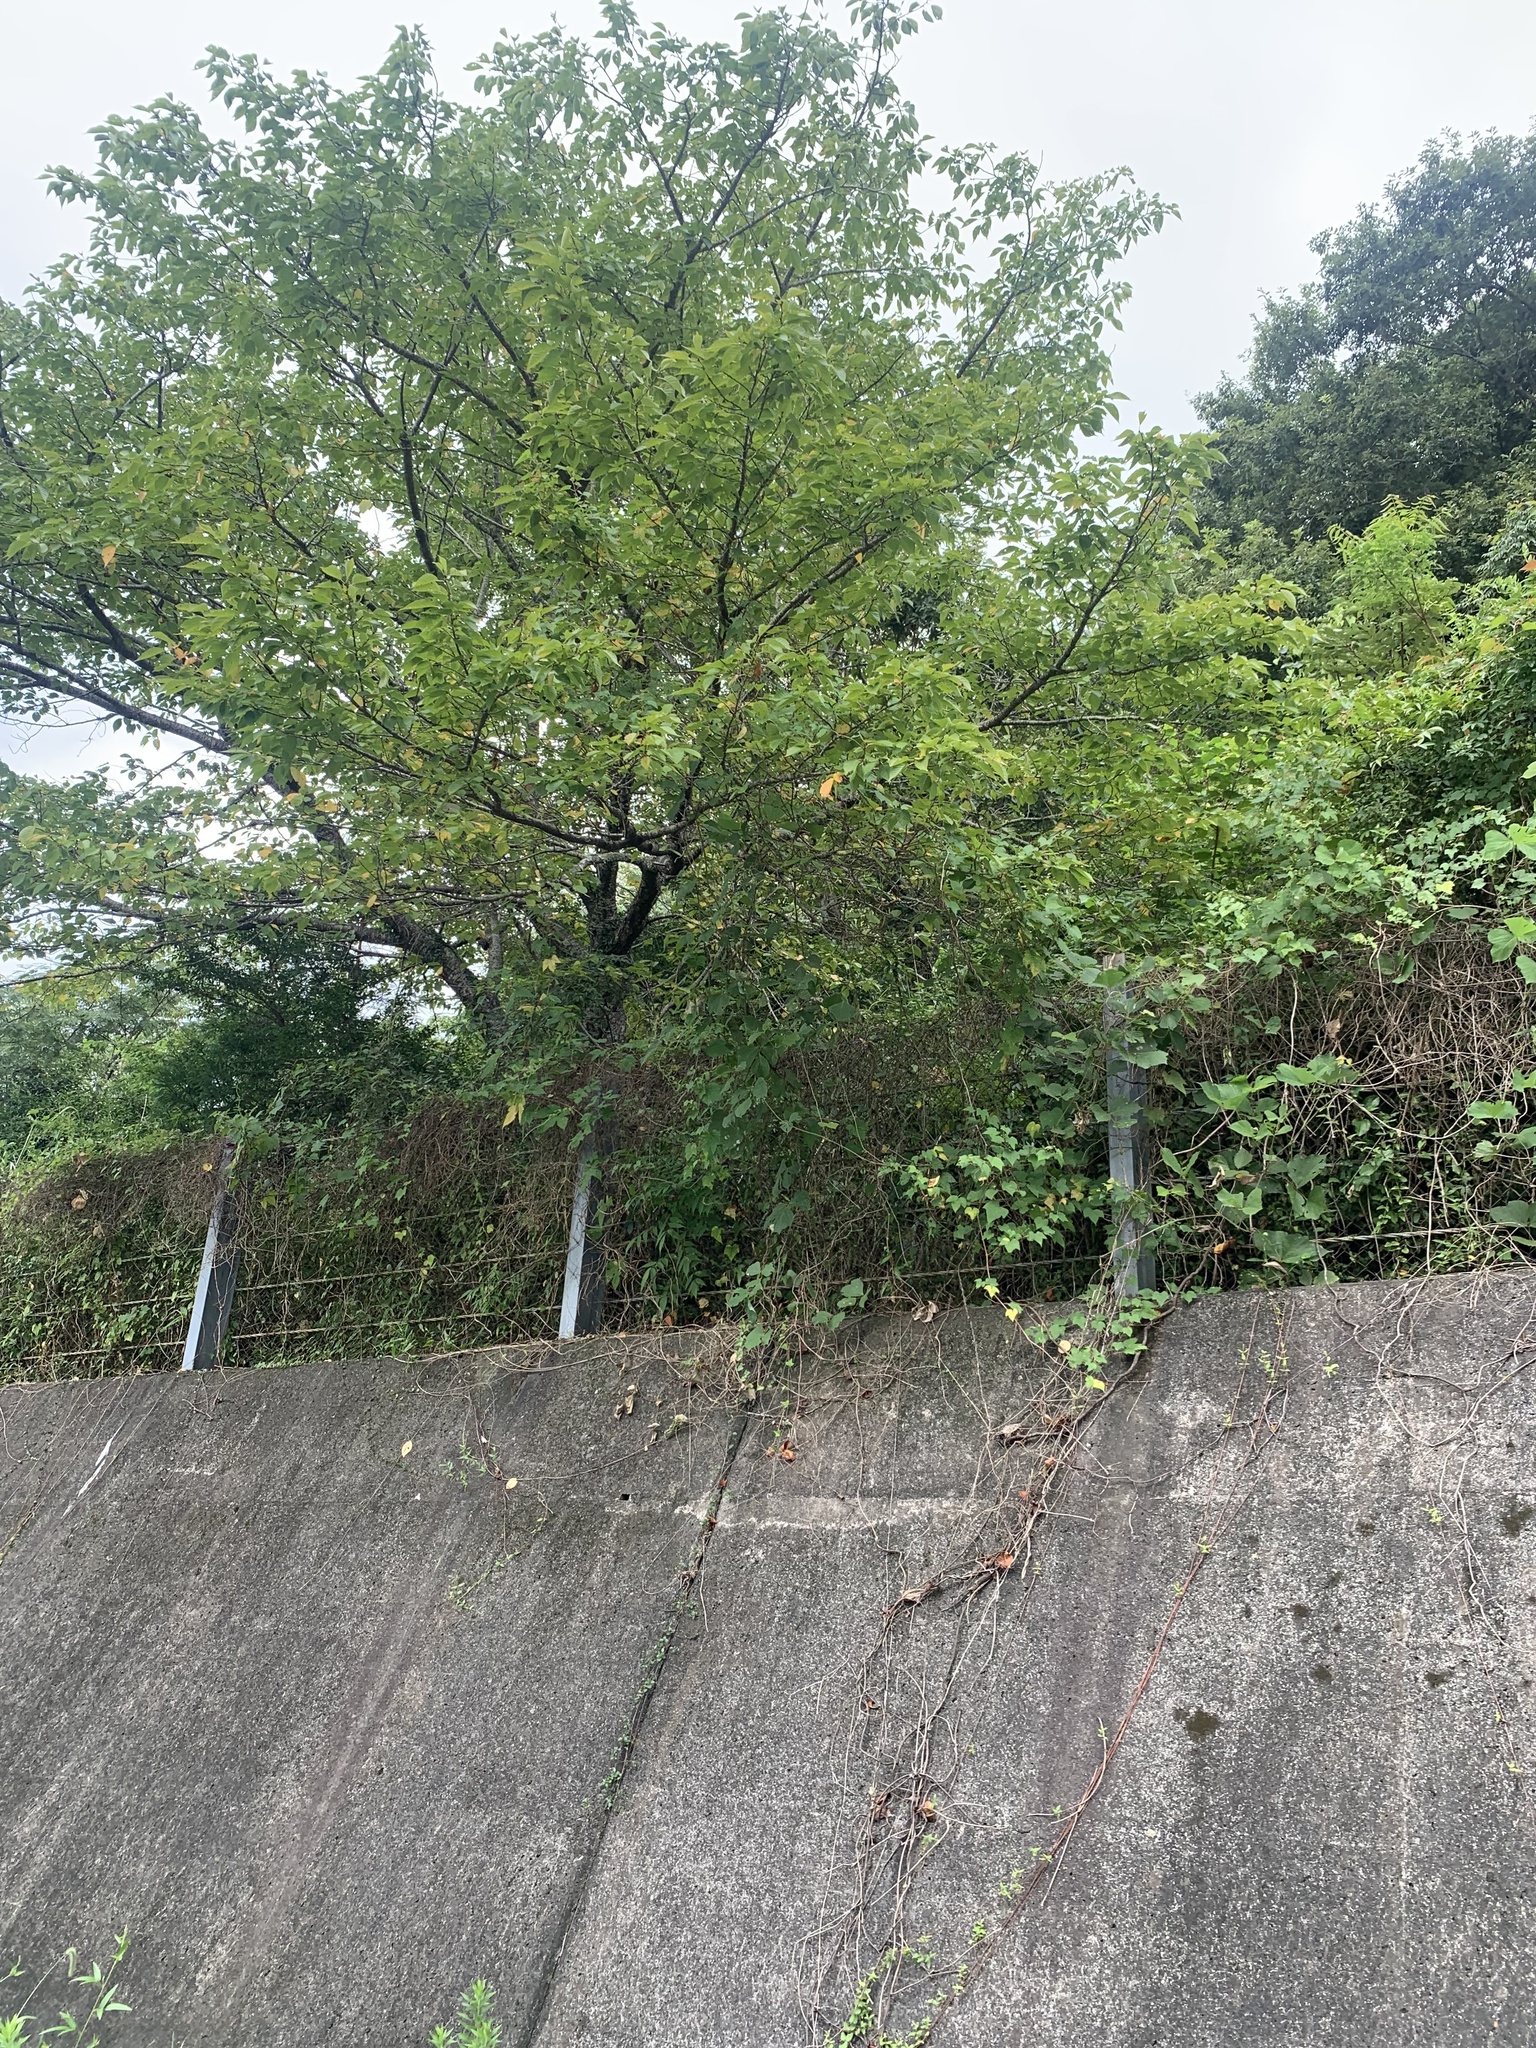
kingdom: Animalia
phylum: Arthropoda
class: Insecta
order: Hemiptera
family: Cicadidae
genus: Meimuna
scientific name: Meimuna opalifera
